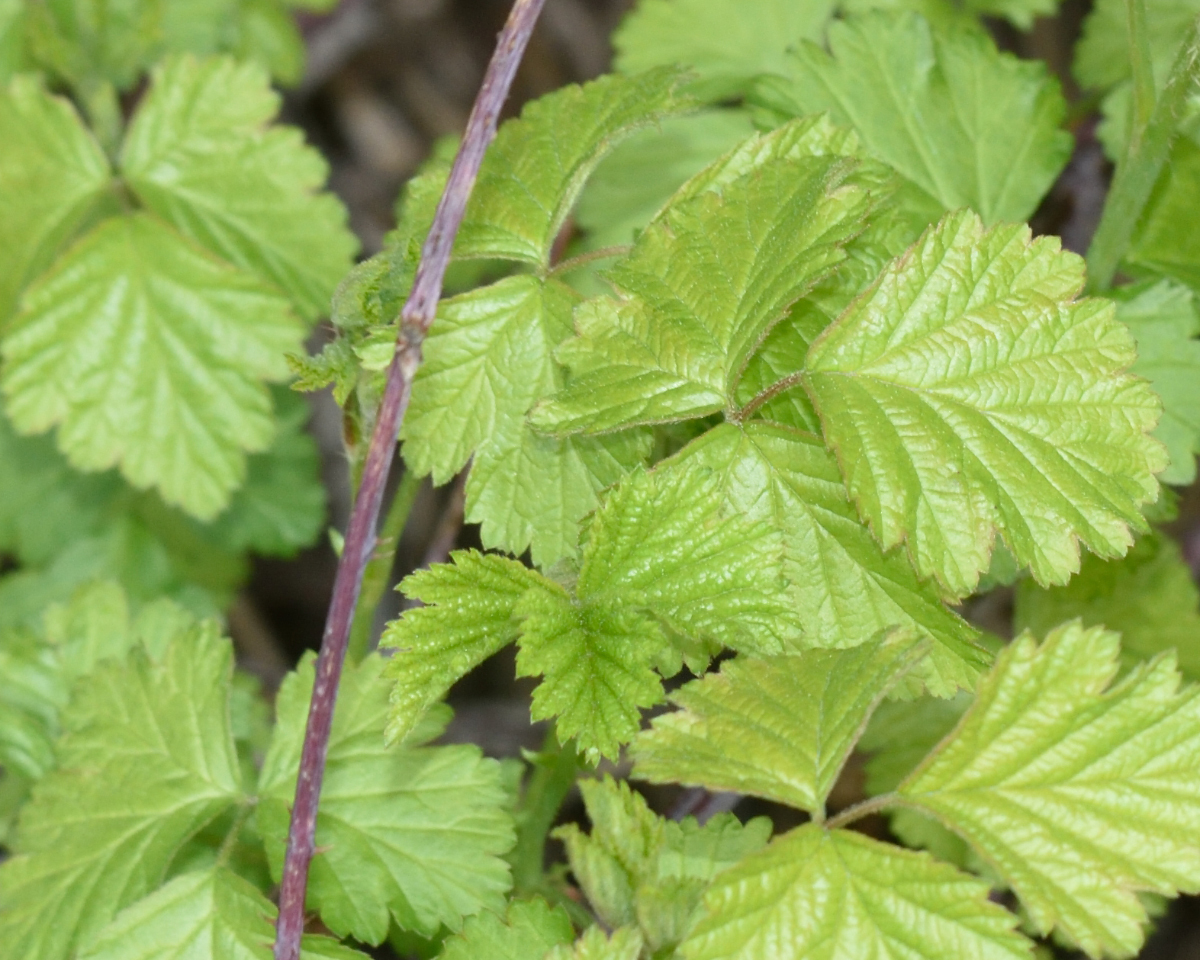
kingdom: Plantae
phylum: Tracheophyta
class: Magnoliopsida
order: Rosales
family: Rosaceae
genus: Rubus
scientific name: Rubus caesius
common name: Dewberry
